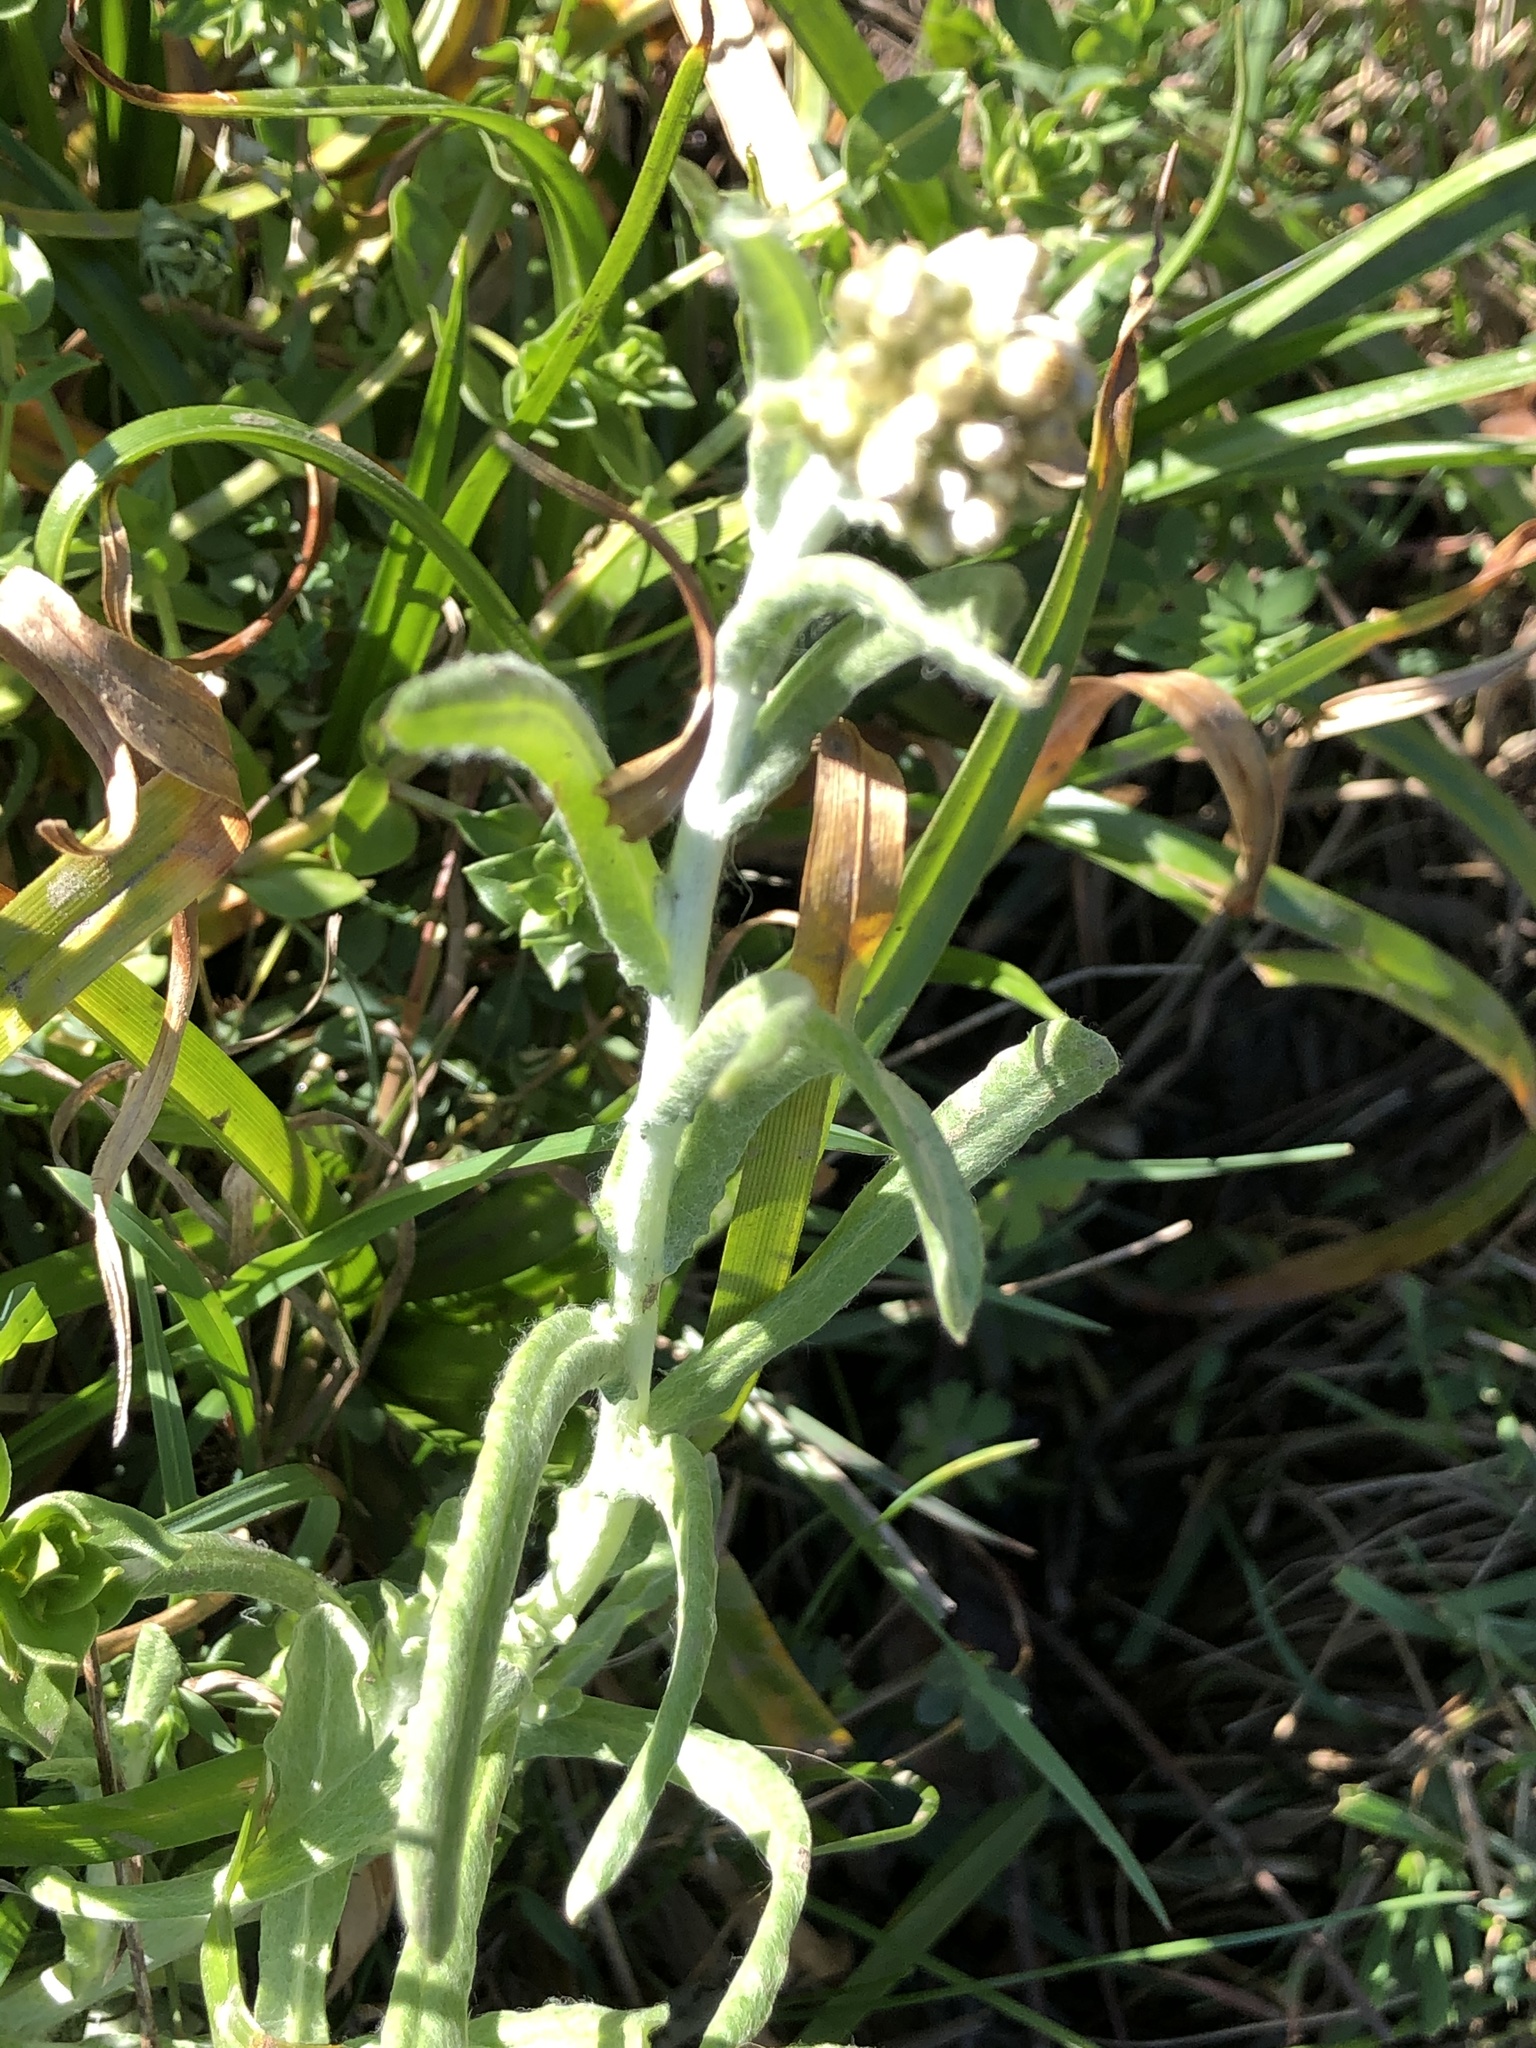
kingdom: Plantae
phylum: Tracheophyta
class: Magnoliopsida
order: Asterales
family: Asteraceae
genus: Helichrysum
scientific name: Helichrysum luteoalbum
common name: Daisy
